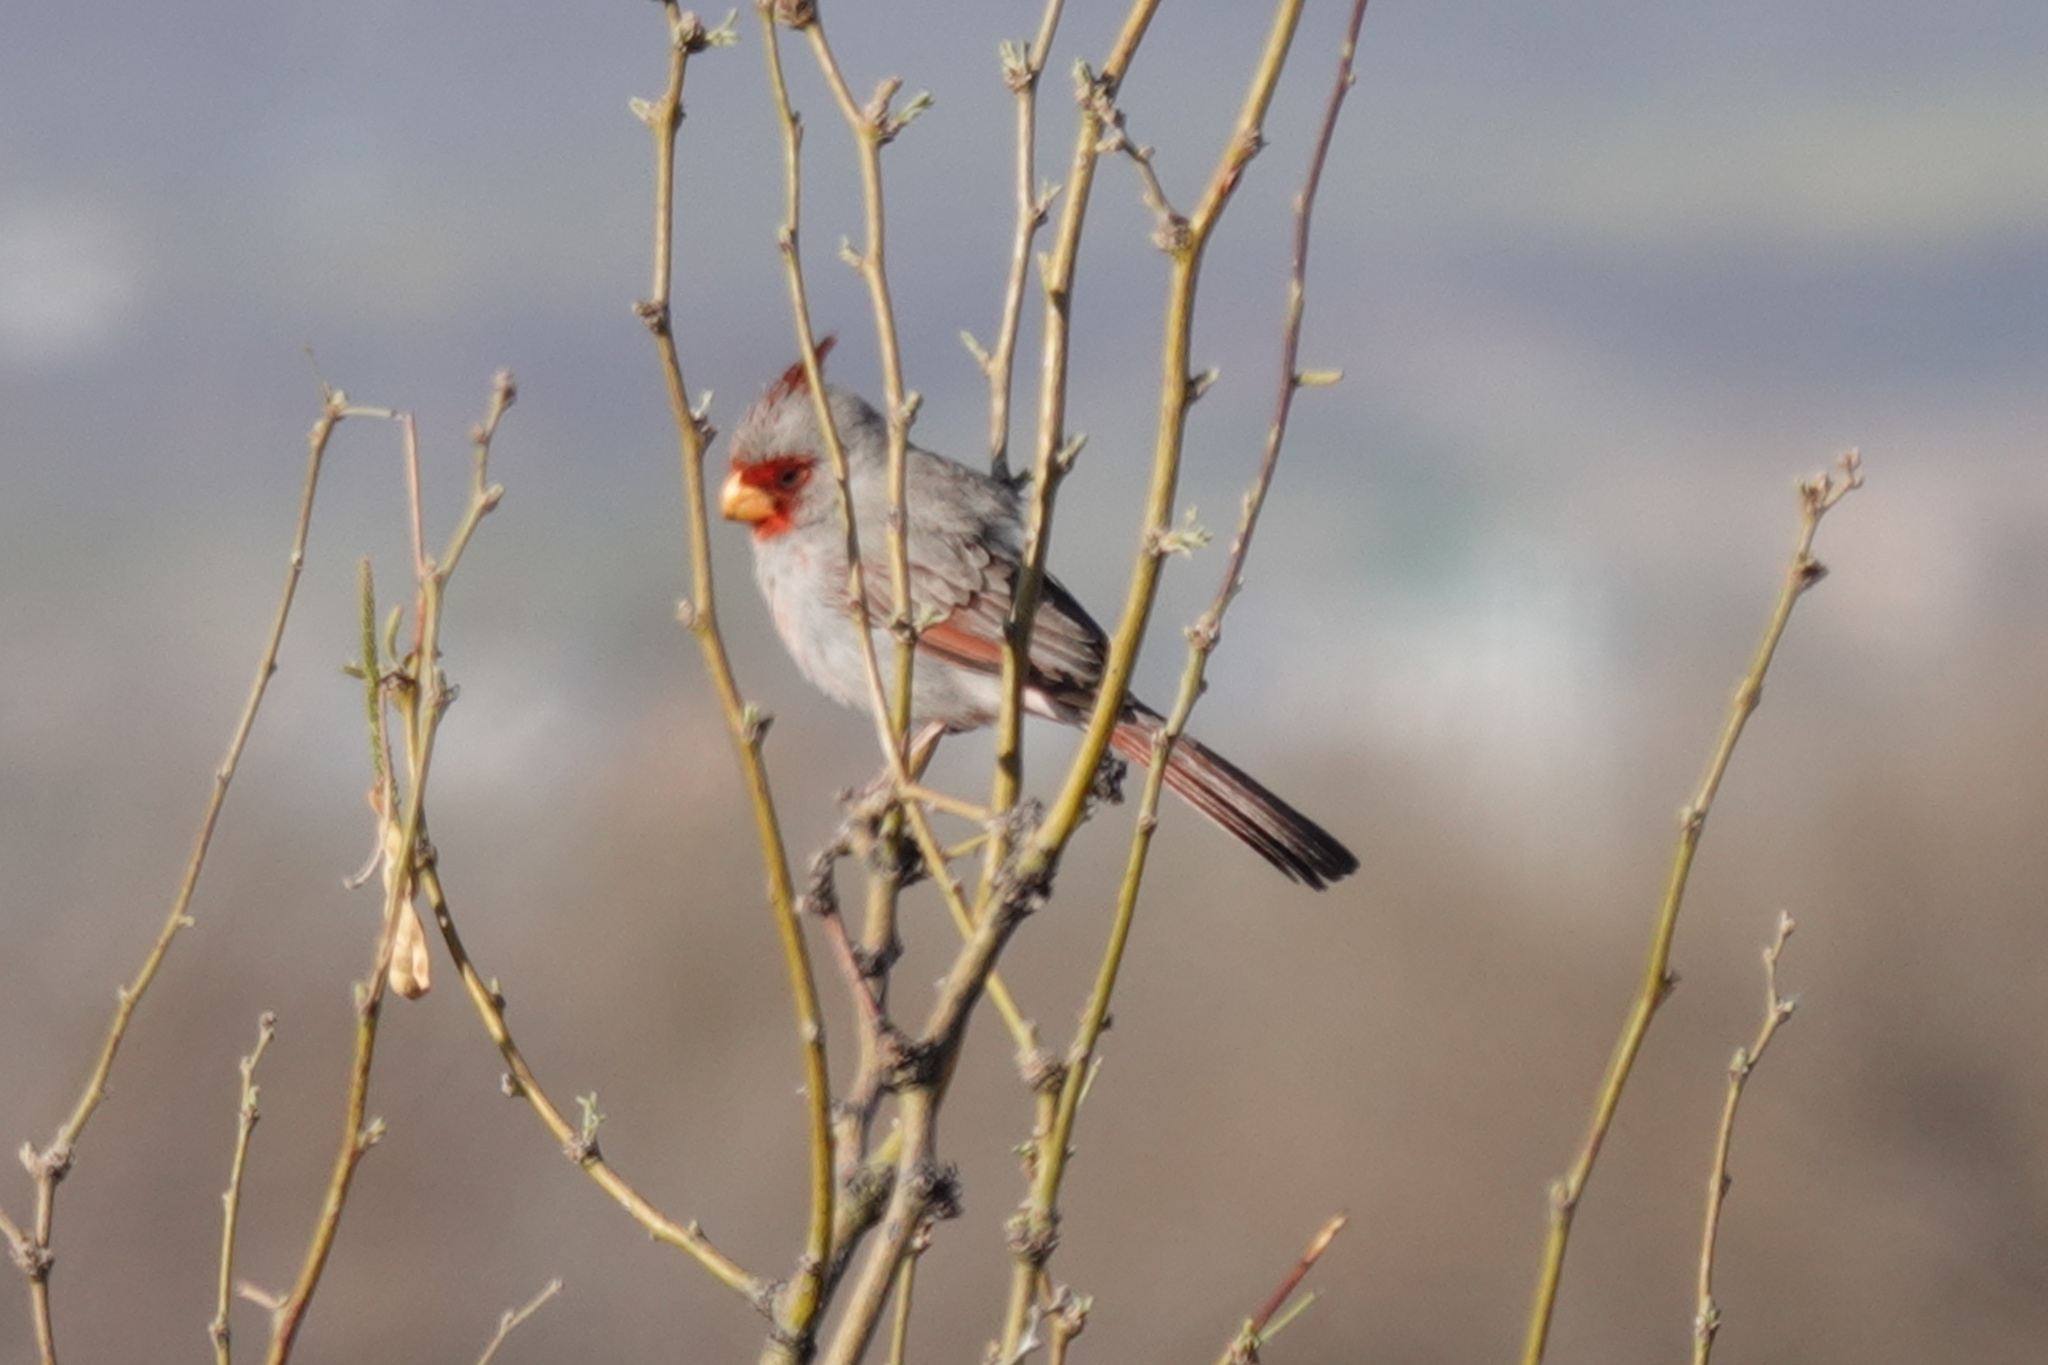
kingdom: Animalia
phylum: Chordata
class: Aves
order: Passeriformes
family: Cardinalidae
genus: Cardinalis
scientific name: Cardinalis sinuatus
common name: Pyrrhuloxia
